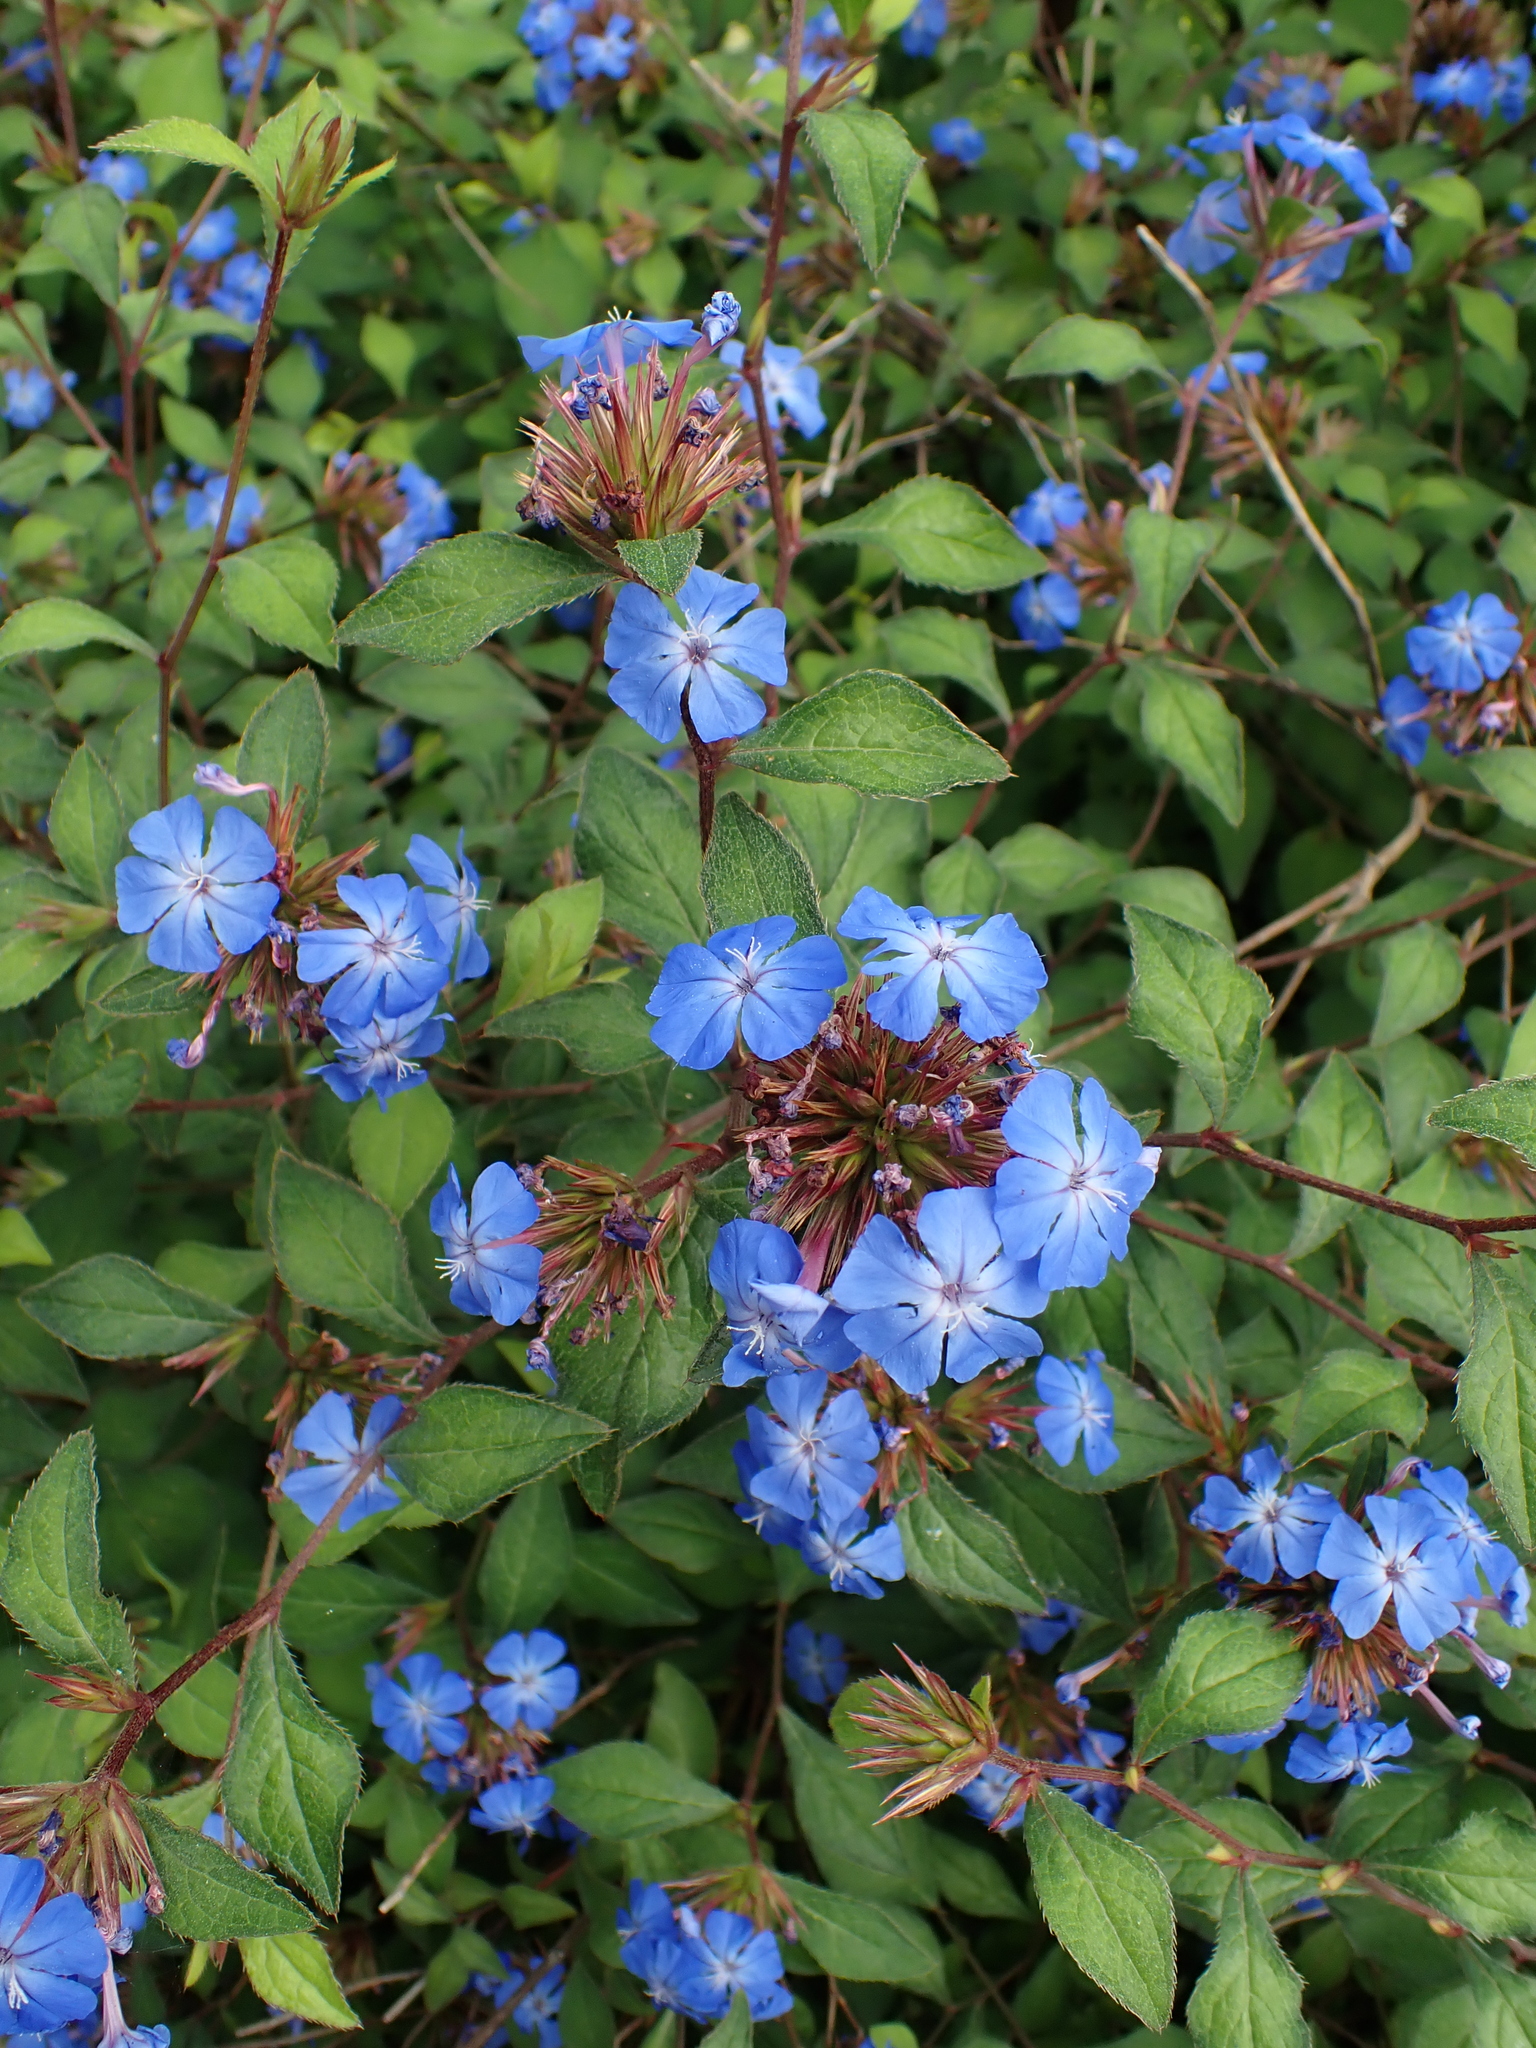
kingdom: Plantae
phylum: Tracheophyta
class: Magnoliopsida
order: Caryophyllales
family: Plumbaginaceae
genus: Ceratostigma
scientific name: Ceratostigma plumbaginoides
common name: Blue leadwood
